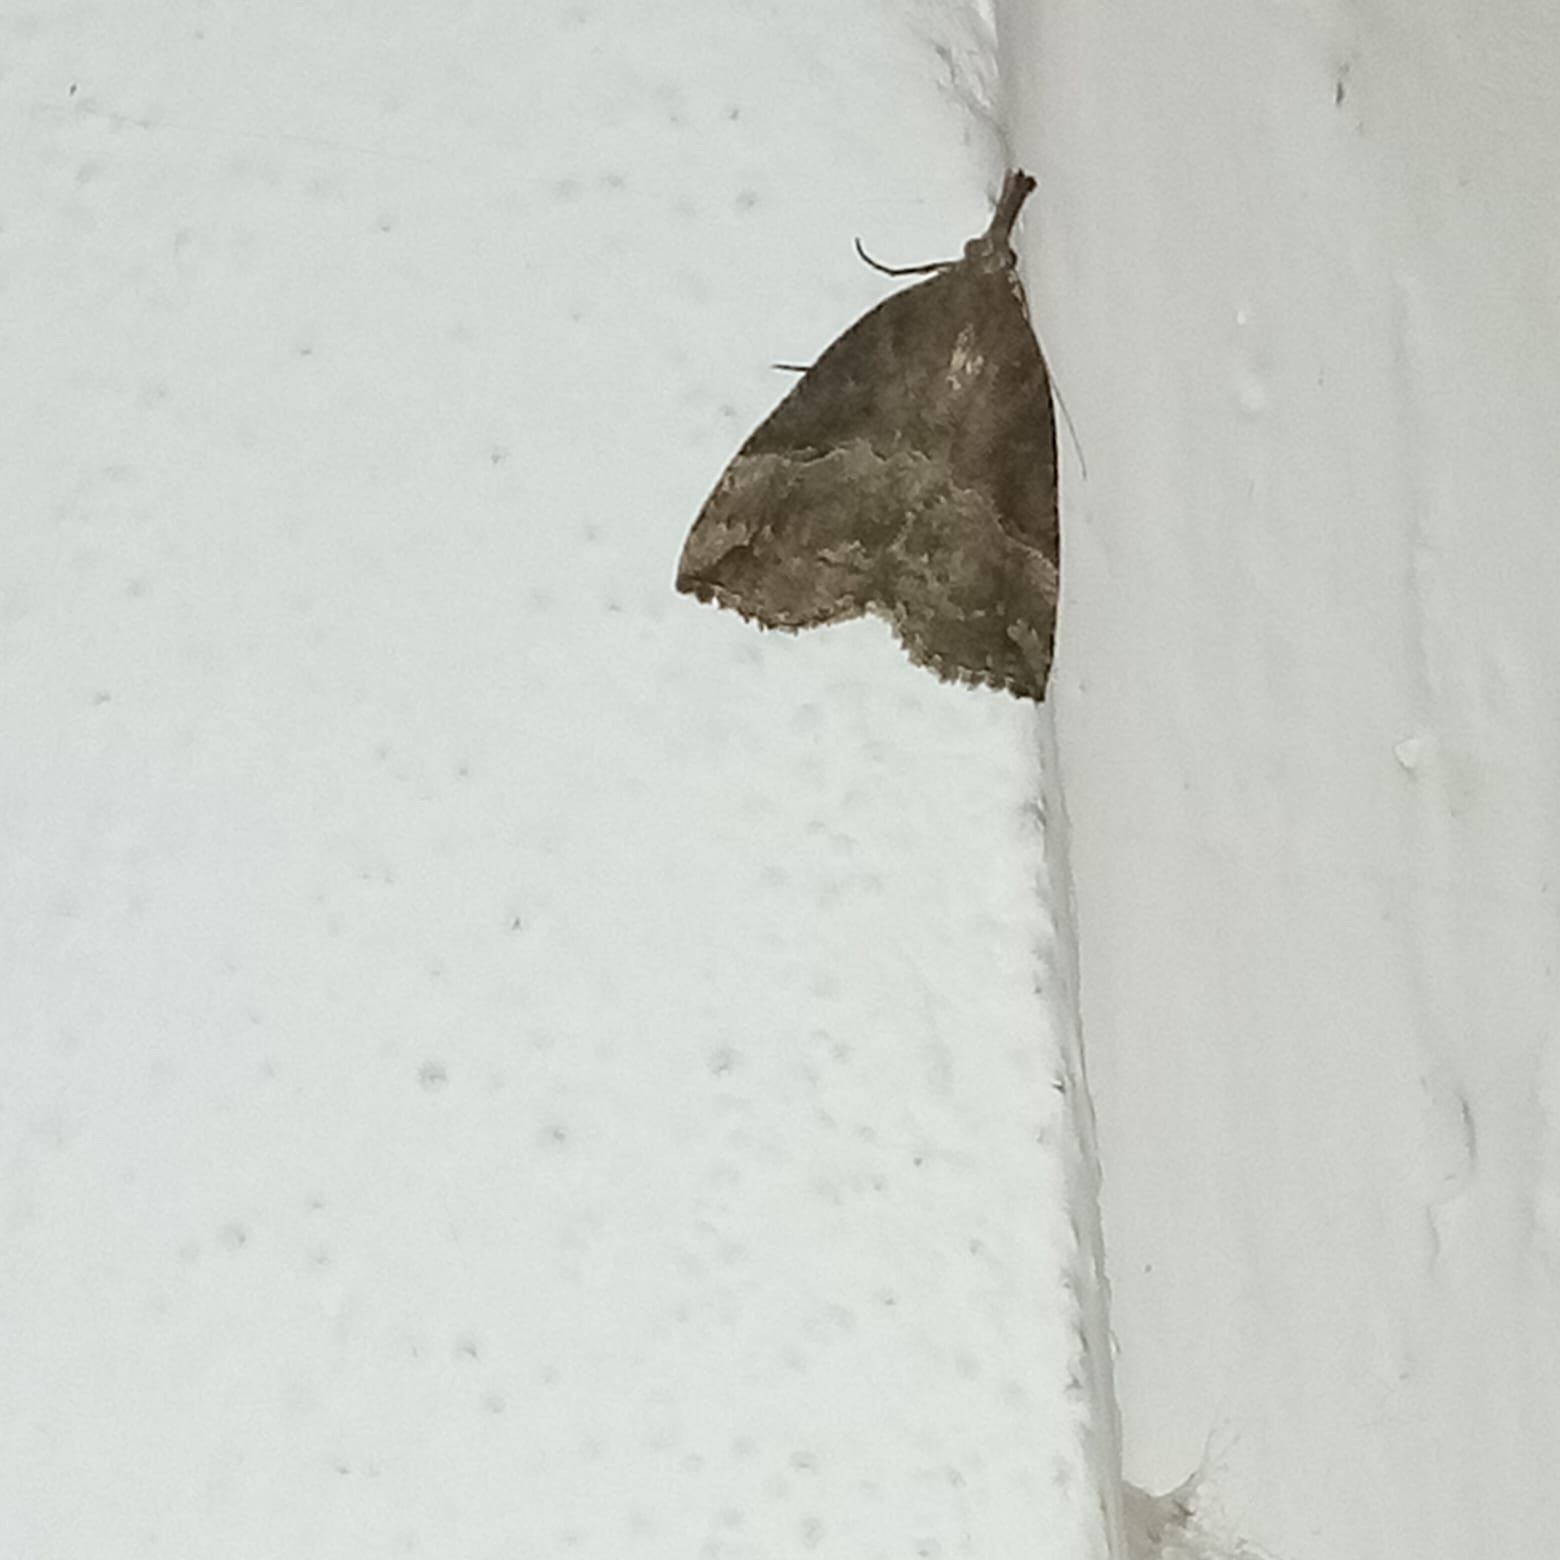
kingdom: Animalia
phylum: Arthropoda
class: Insecta
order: Lepidoptera
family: Erebidae
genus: Hypena
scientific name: Hypena rostralis
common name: Buttoned snout
